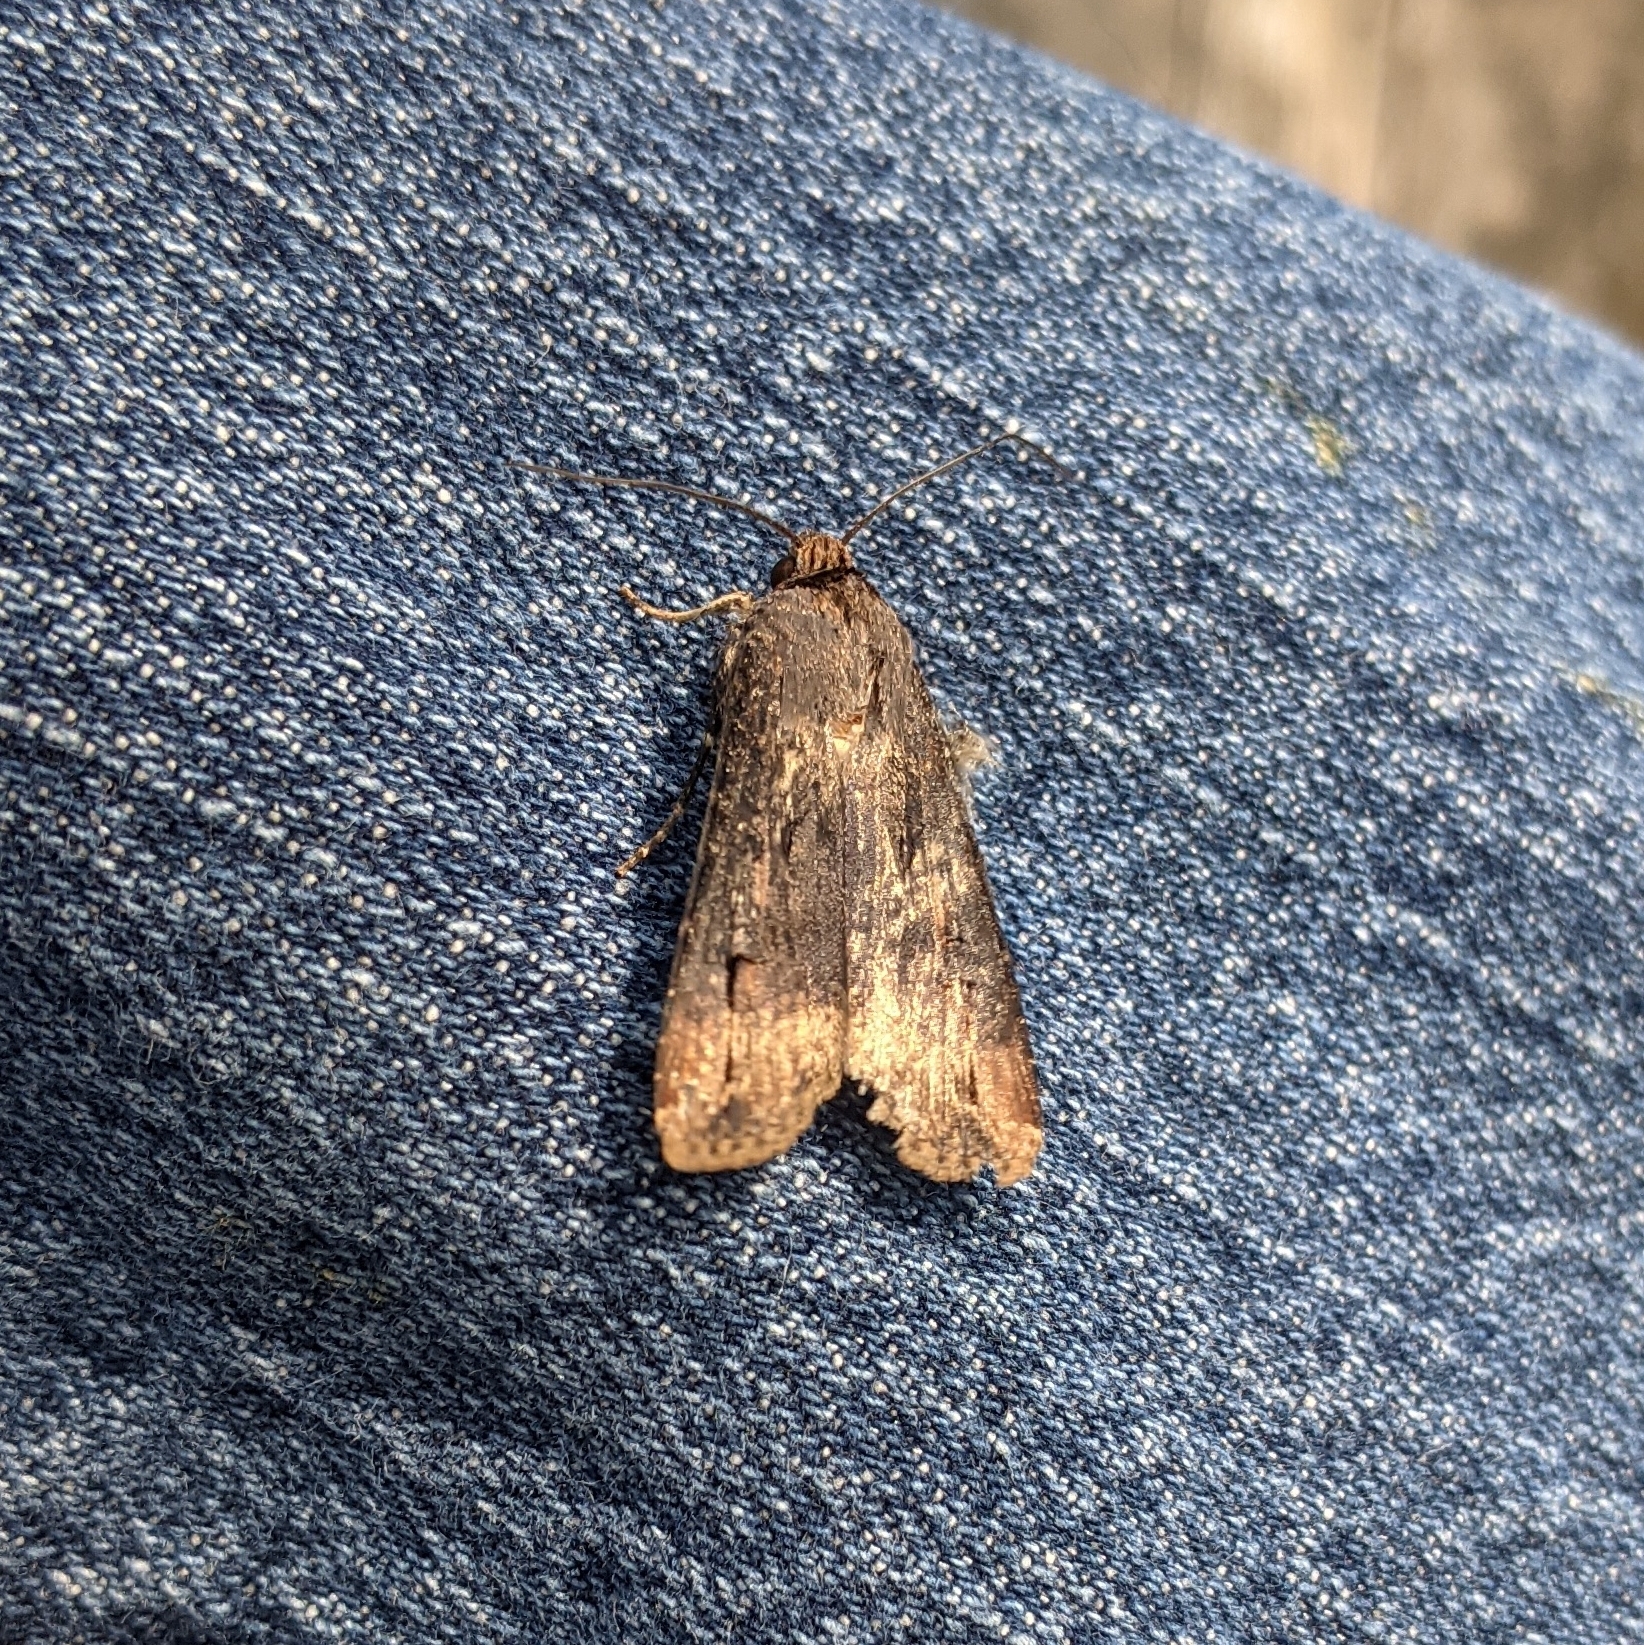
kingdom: Animalia
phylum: Arthropoda
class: Insecta
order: Lepidoptera
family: Noctuidae
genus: Agrotis
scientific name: Agrotis ipsilon
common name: Dark sword-grass
